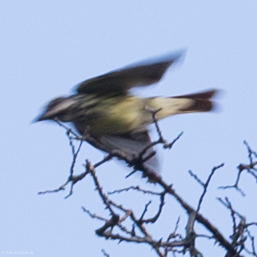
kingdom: Animalia
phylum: Chordata
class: Aves
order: Passeriformes
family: Tyrannidae
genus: Myiodynastes
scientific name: Myiodynastes luteiventris
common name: Sulphur-bellied flycatcher
